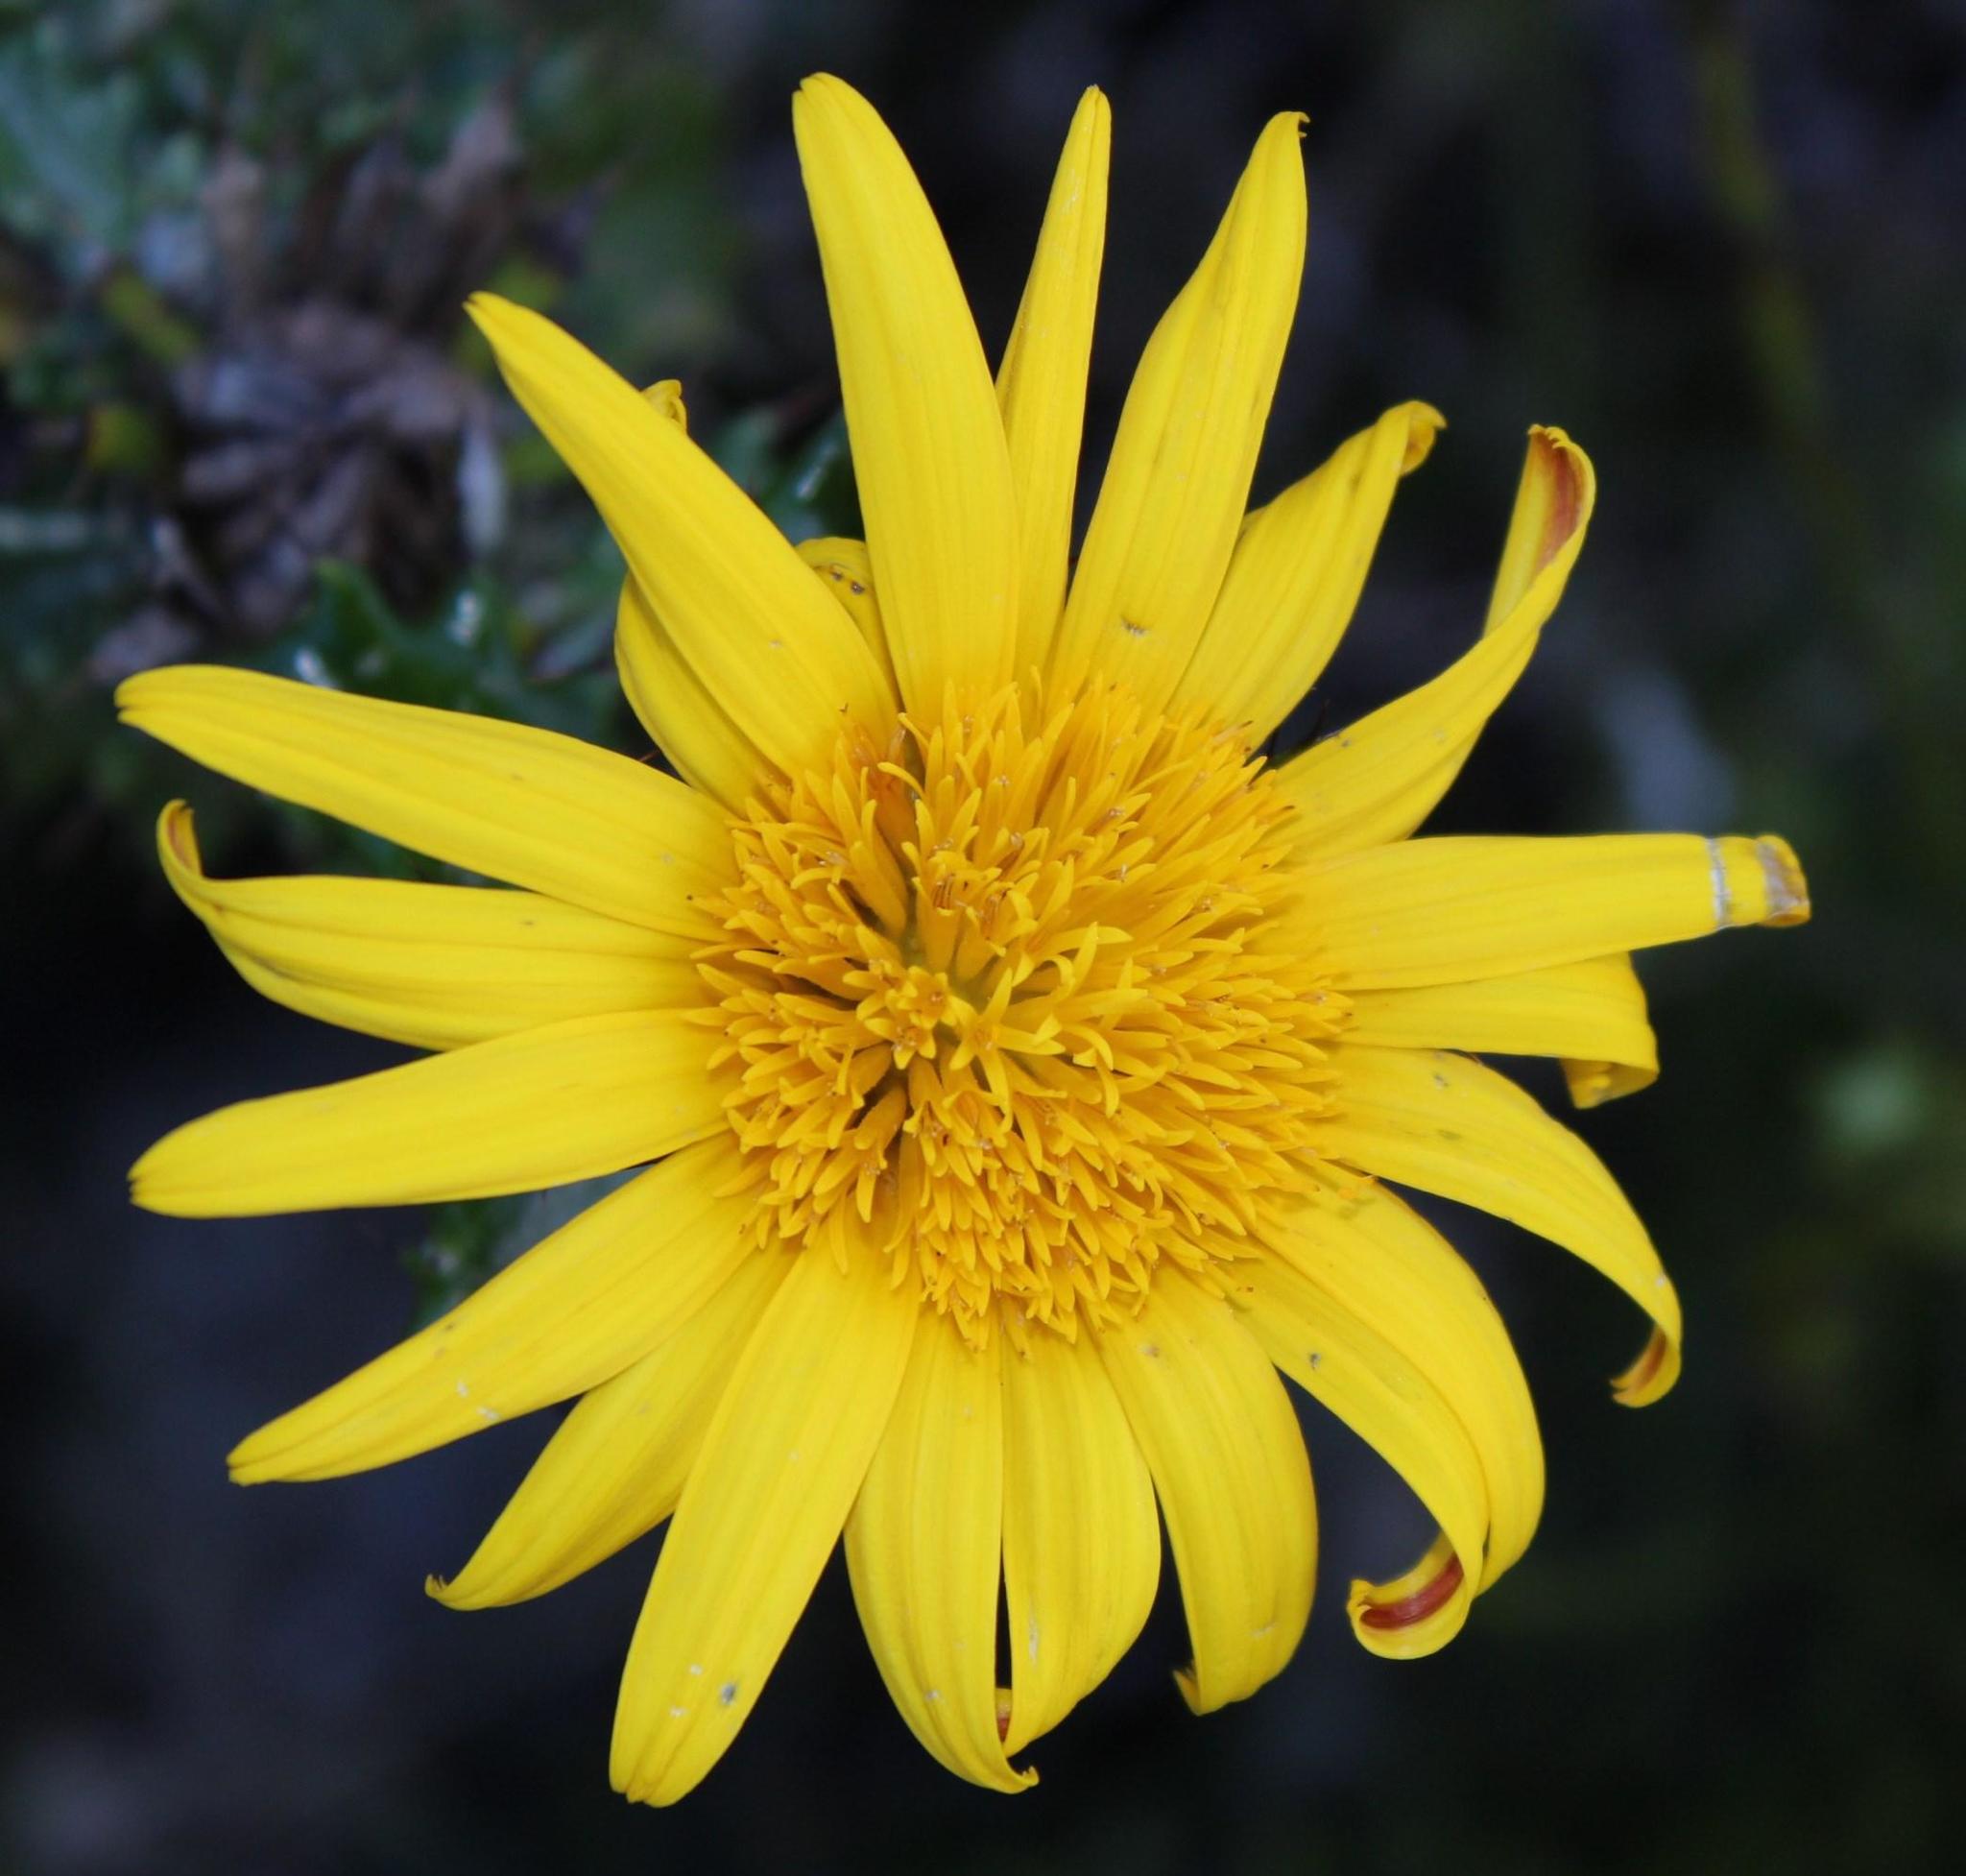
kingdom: Plantae
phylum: Tracheophyta
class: Magnoliopsida
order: Asterales
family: Asteraceae
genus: Berkheya
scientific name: Berkheya coriacea
